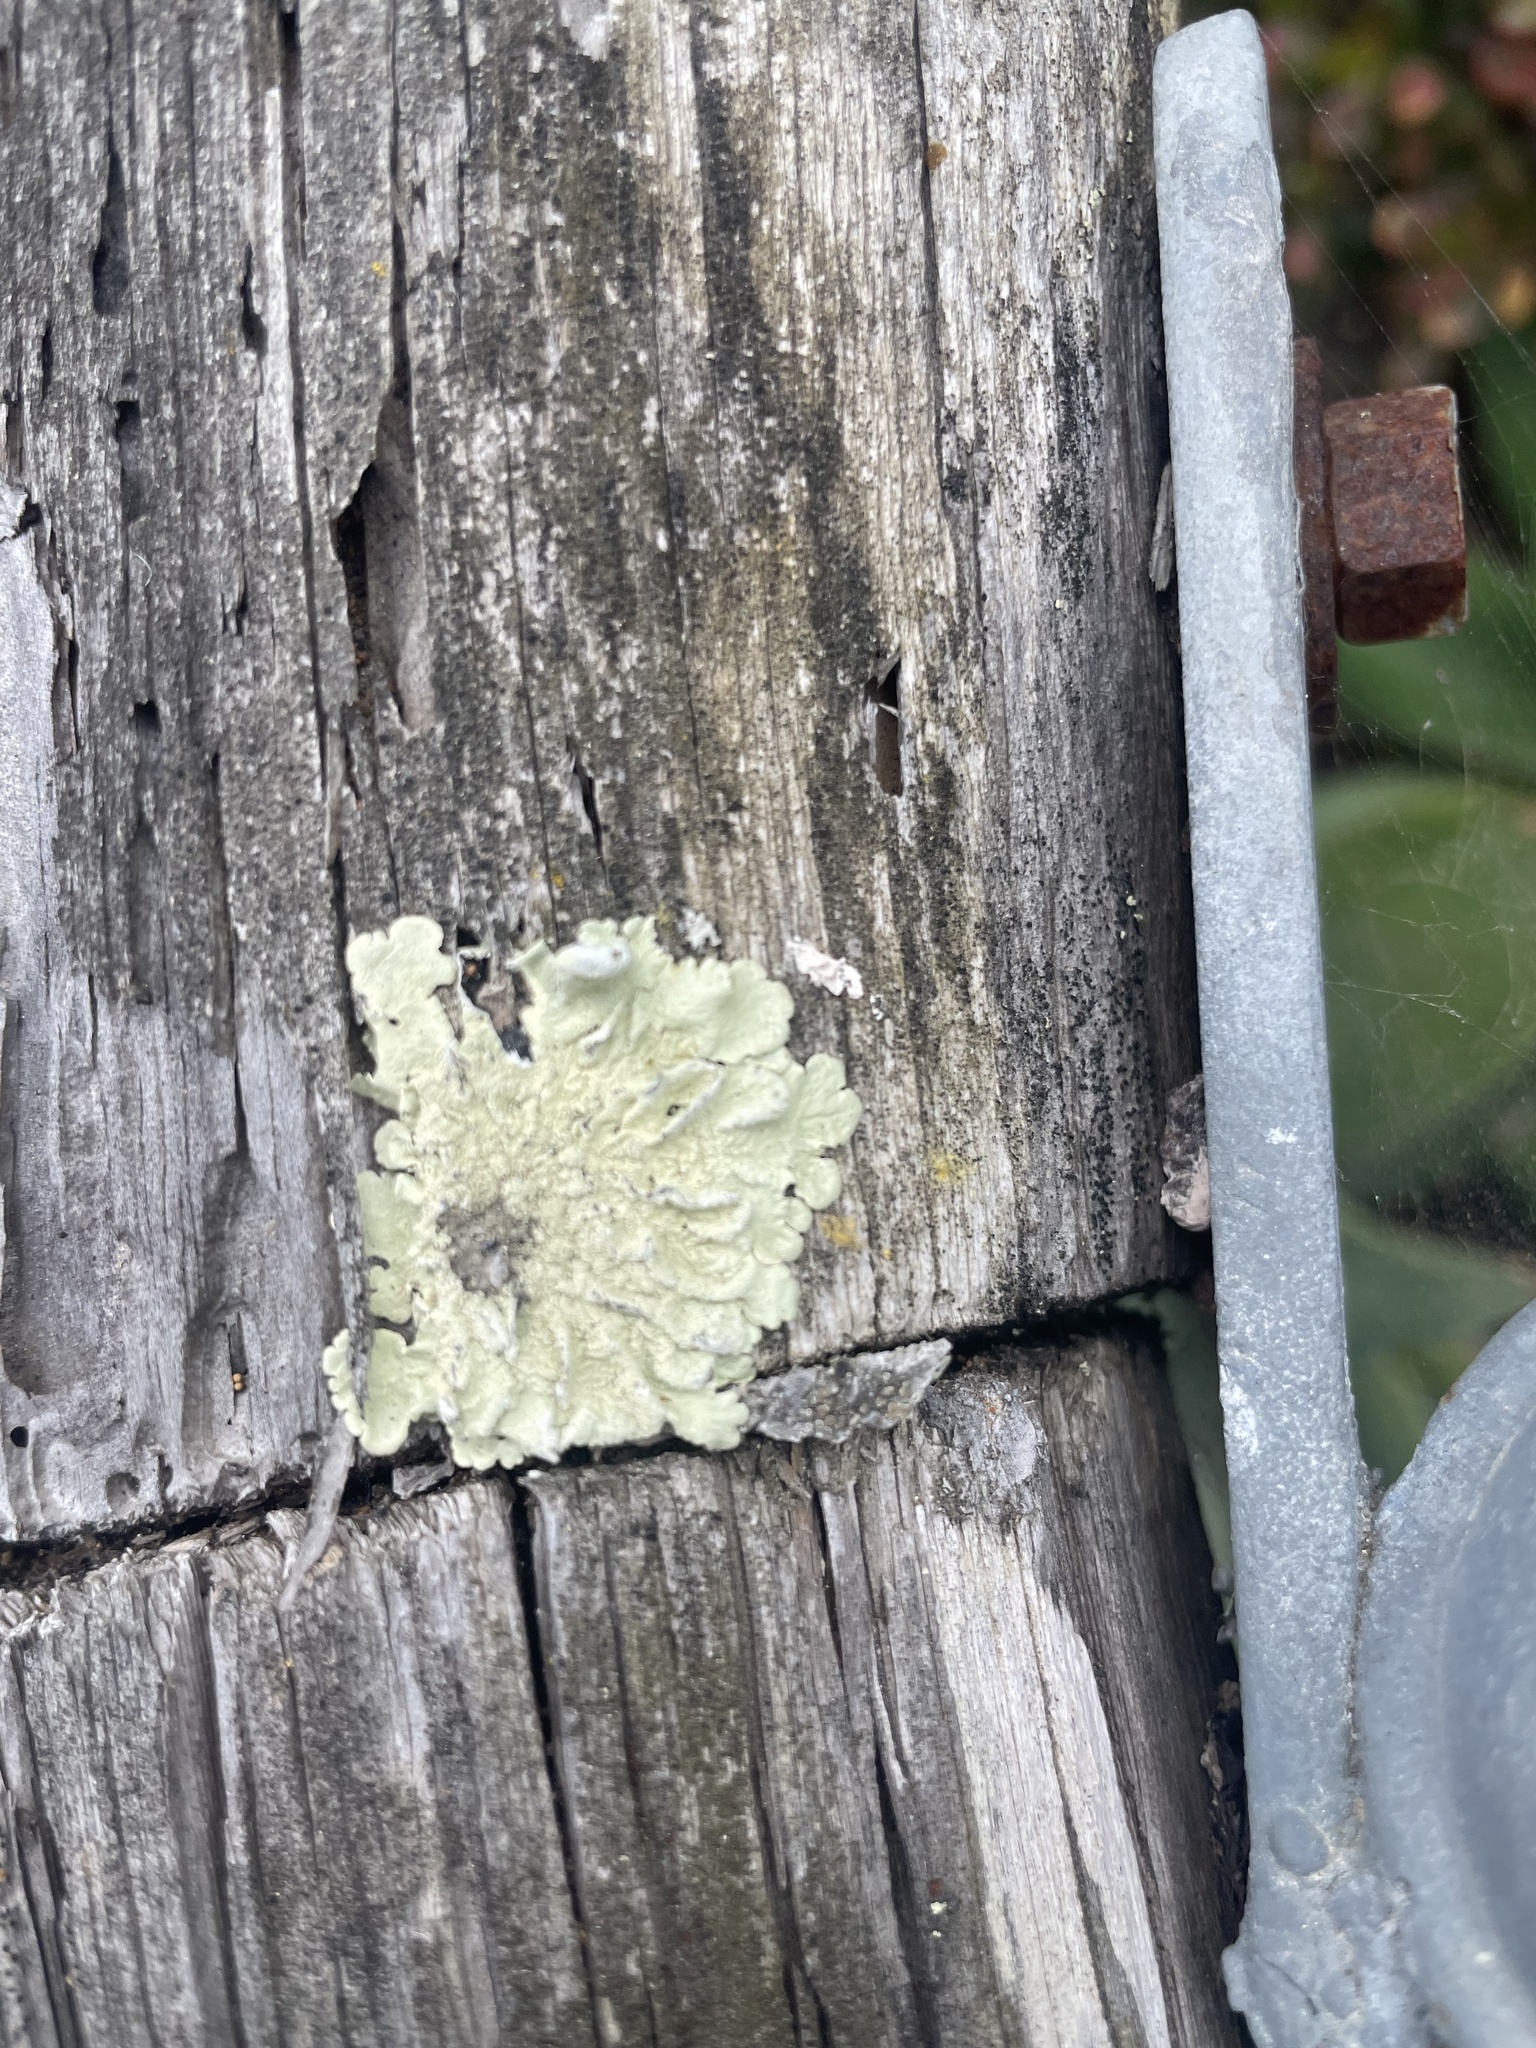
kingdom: Fungi
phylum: Ascomycota
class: Lecanoromycetes
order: Lecanorales
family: Parmeliaceae
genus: Flavoparmelia
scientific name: Flavoparmelia caperata
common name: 40-mile per hour lichen
